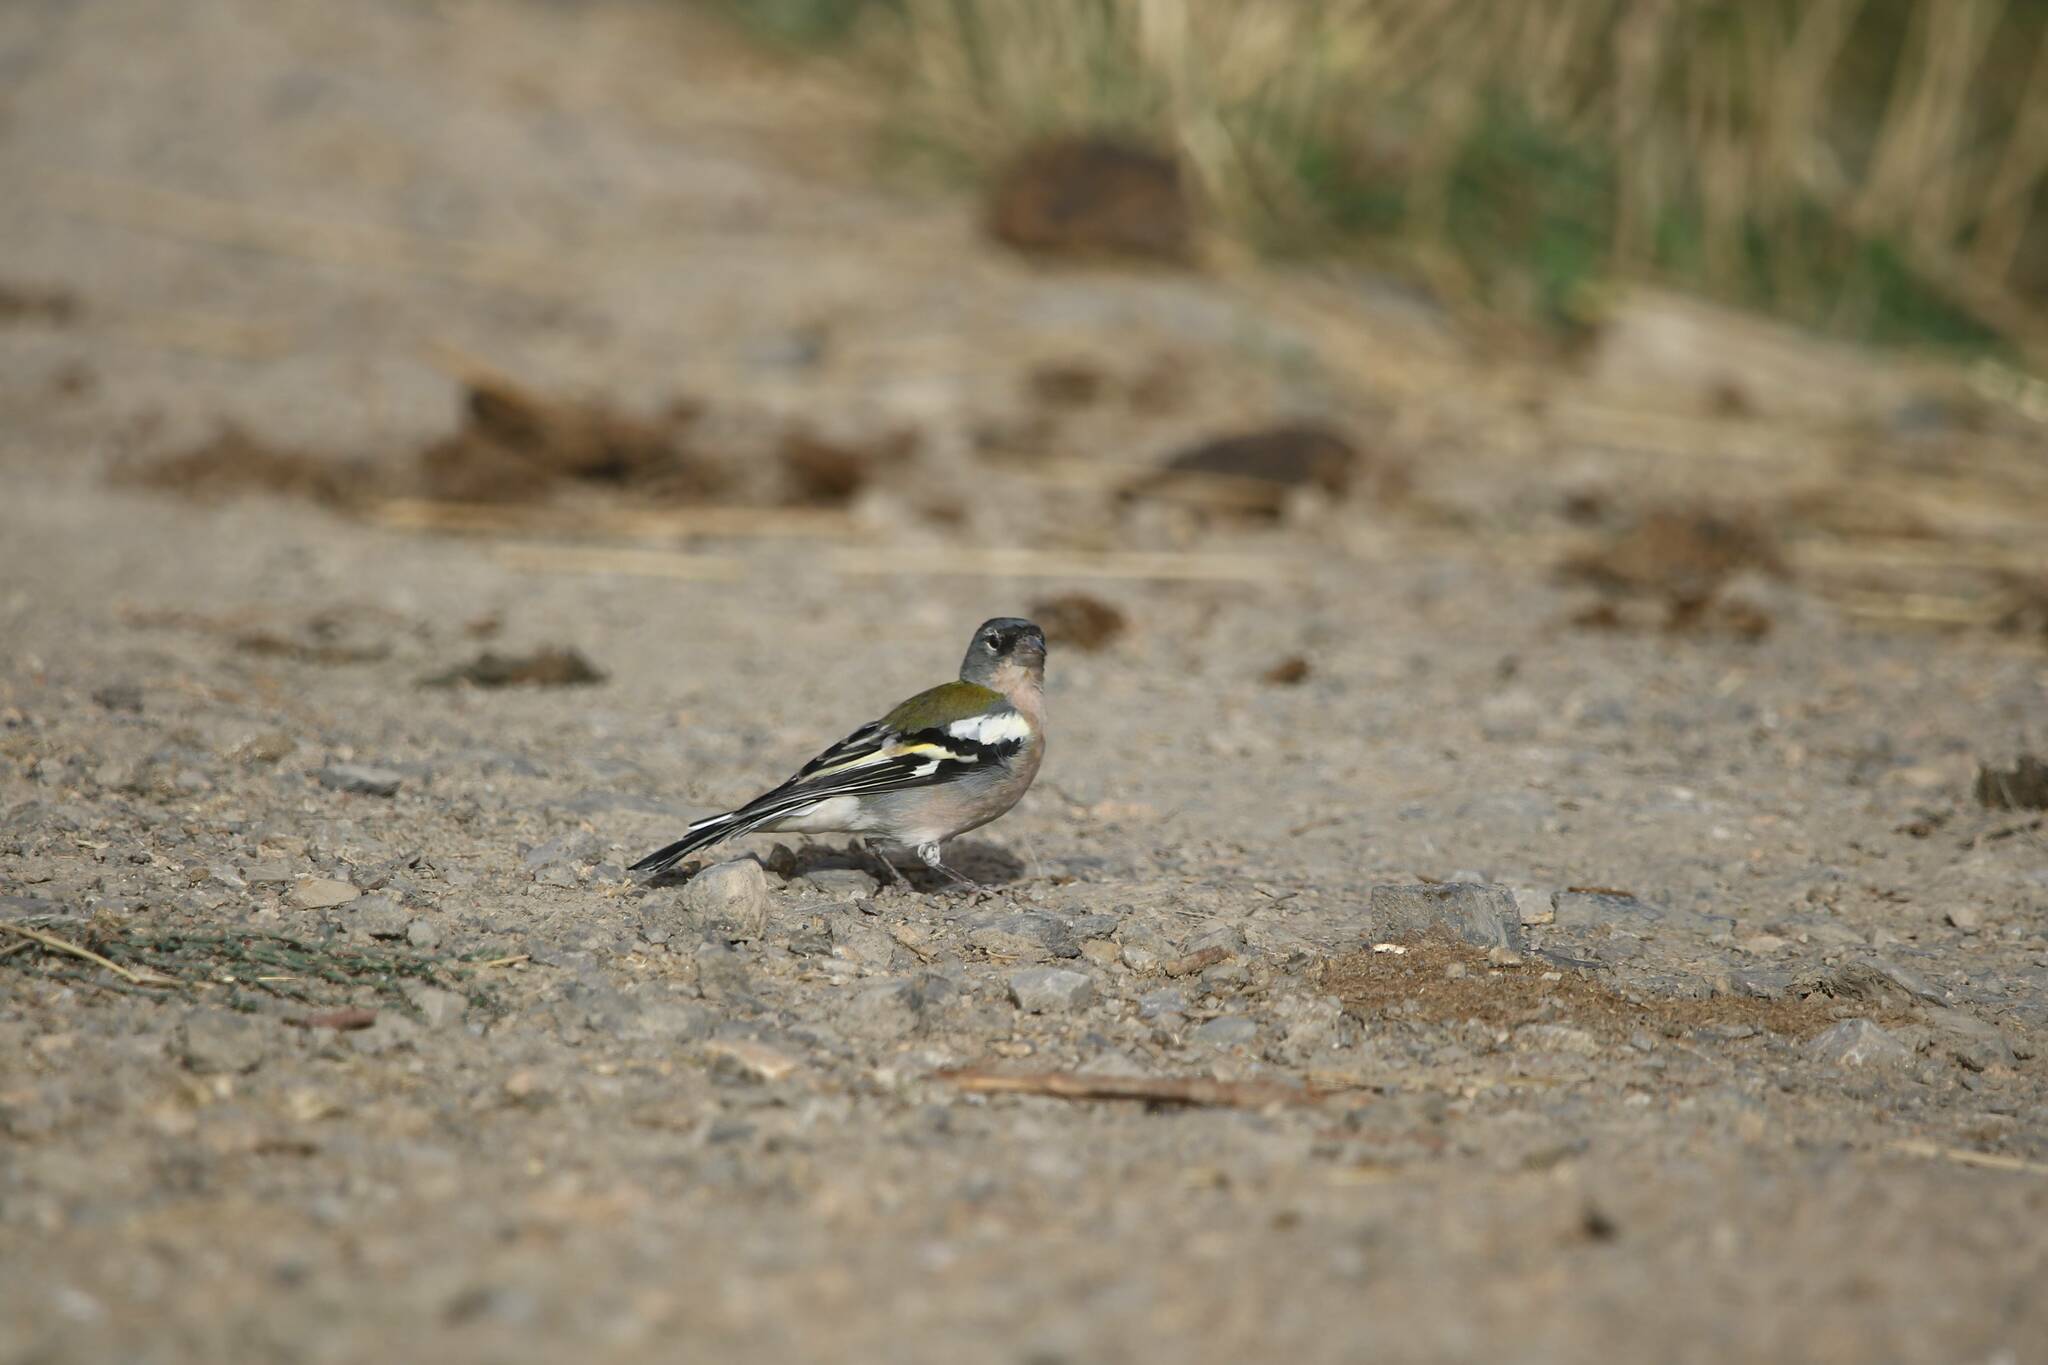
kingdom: Animalia
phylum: Chordata
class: Aves
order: Passeriformes
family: Fringillidae
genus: Fringilla
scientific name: Fringilla spodiogenys
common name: African chaffinch
